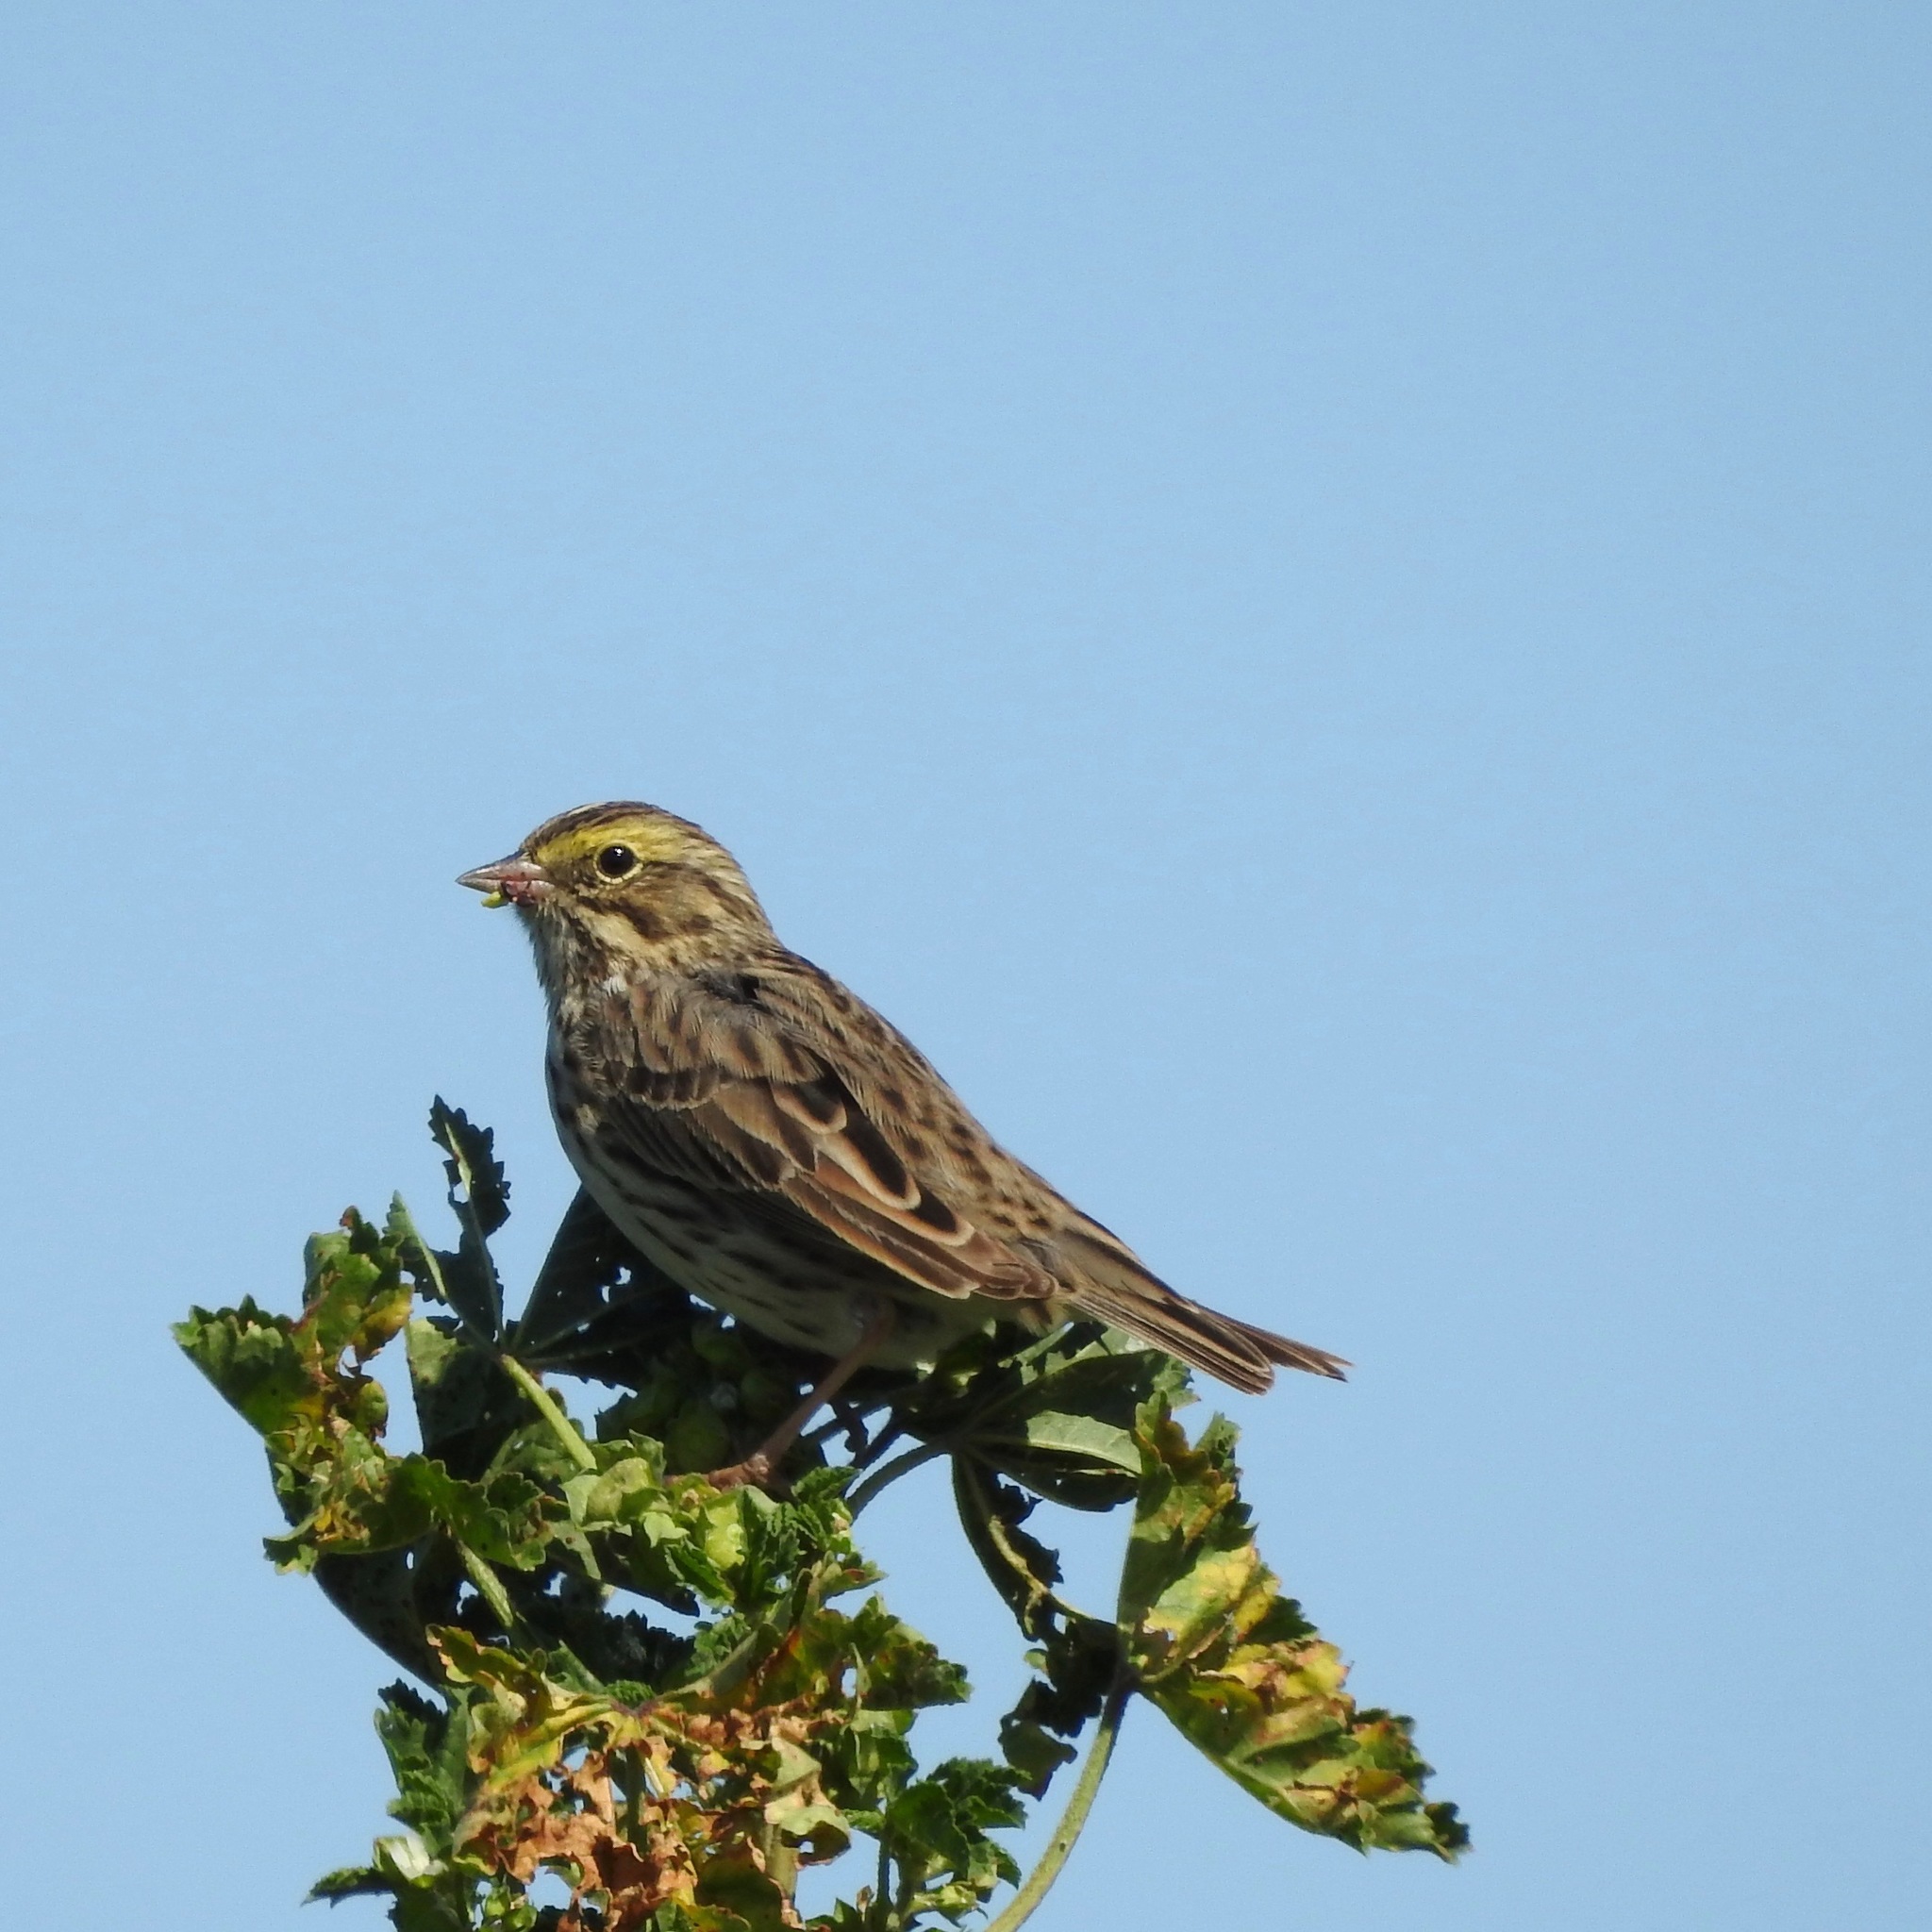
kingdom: Animalia
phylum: Chordata
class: Aves
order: Passeriformes
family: Passerellidae
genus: Passerculus
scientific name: Passerculus sandwichensis
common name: Savannah sparrow
